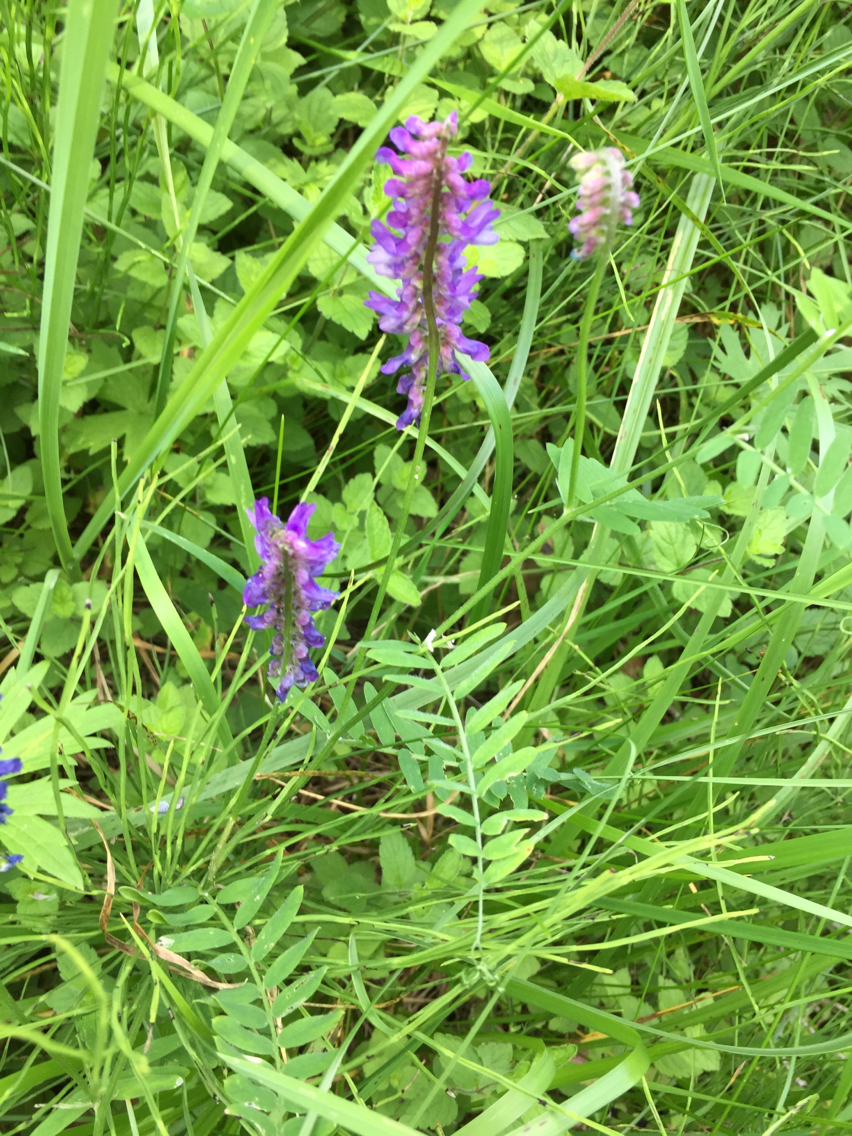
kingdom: Plantae
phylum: Tracheophyta
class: Magnoliopsida
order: Fabales
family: Fabaceae
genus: Vicia
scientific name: Vicia cracca
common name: Bird vetch
